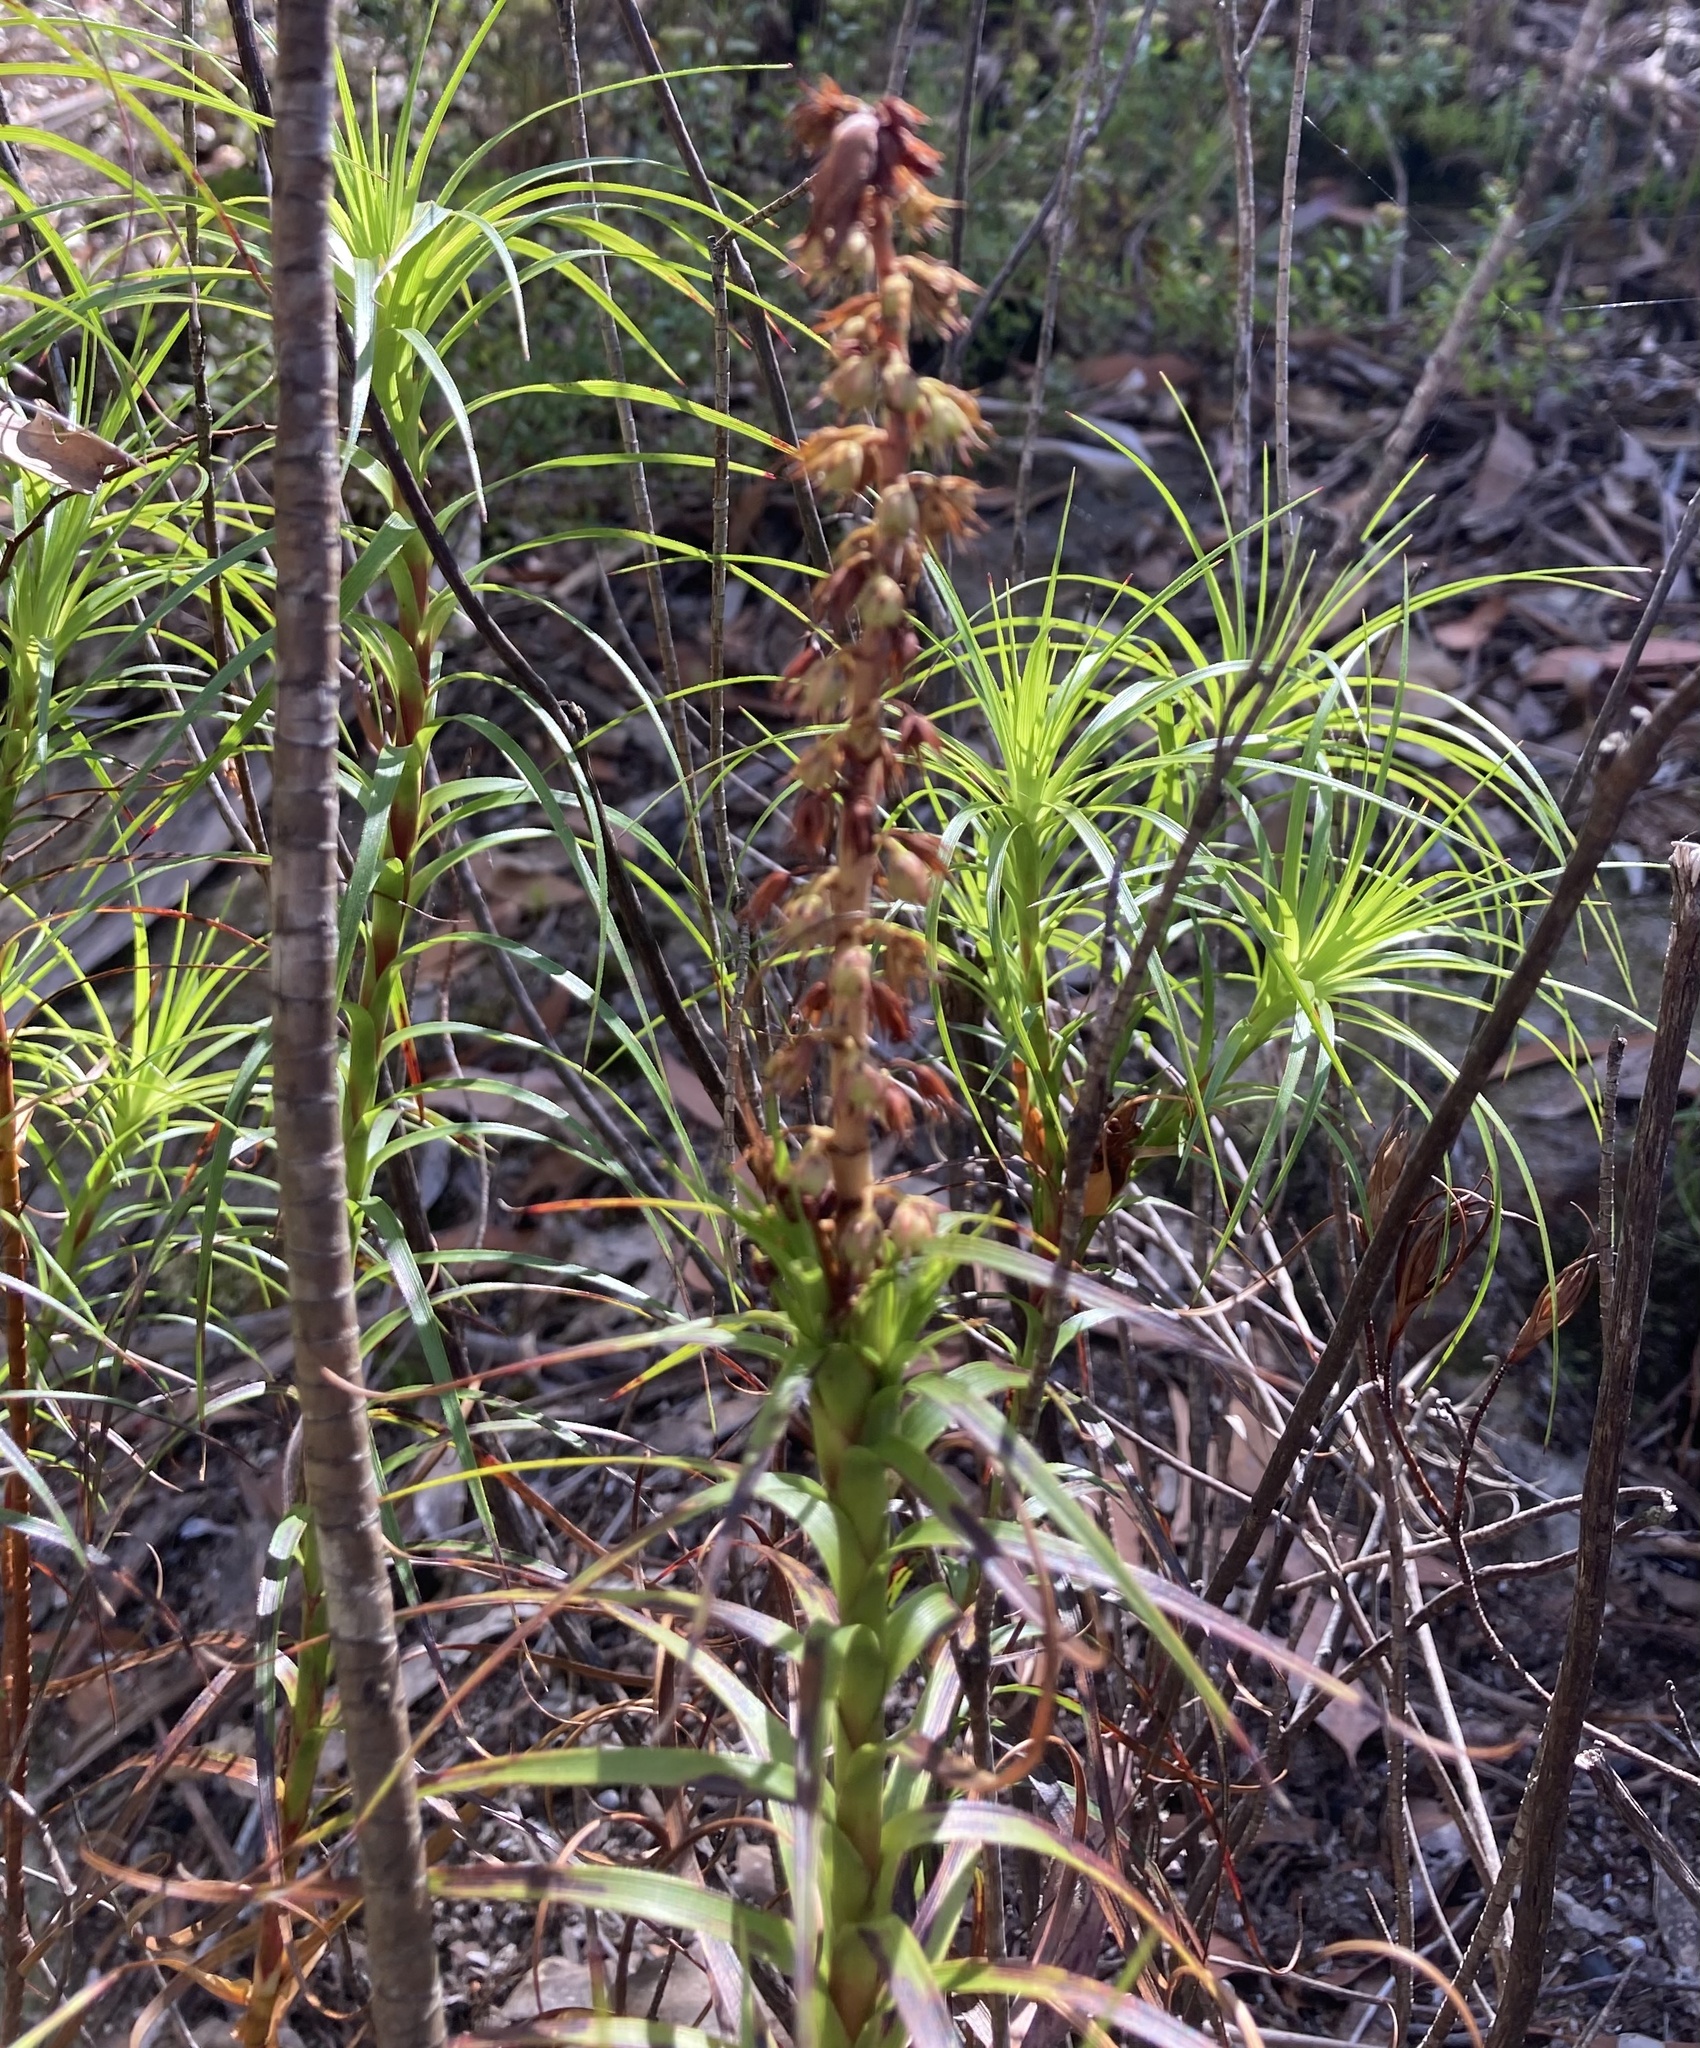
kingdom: Plantae
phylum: Tracheophyta
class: Magnoliopsida
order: Ericales
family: Ericaceae
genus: Dracophyllum
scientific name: Dracophyllum secundum
